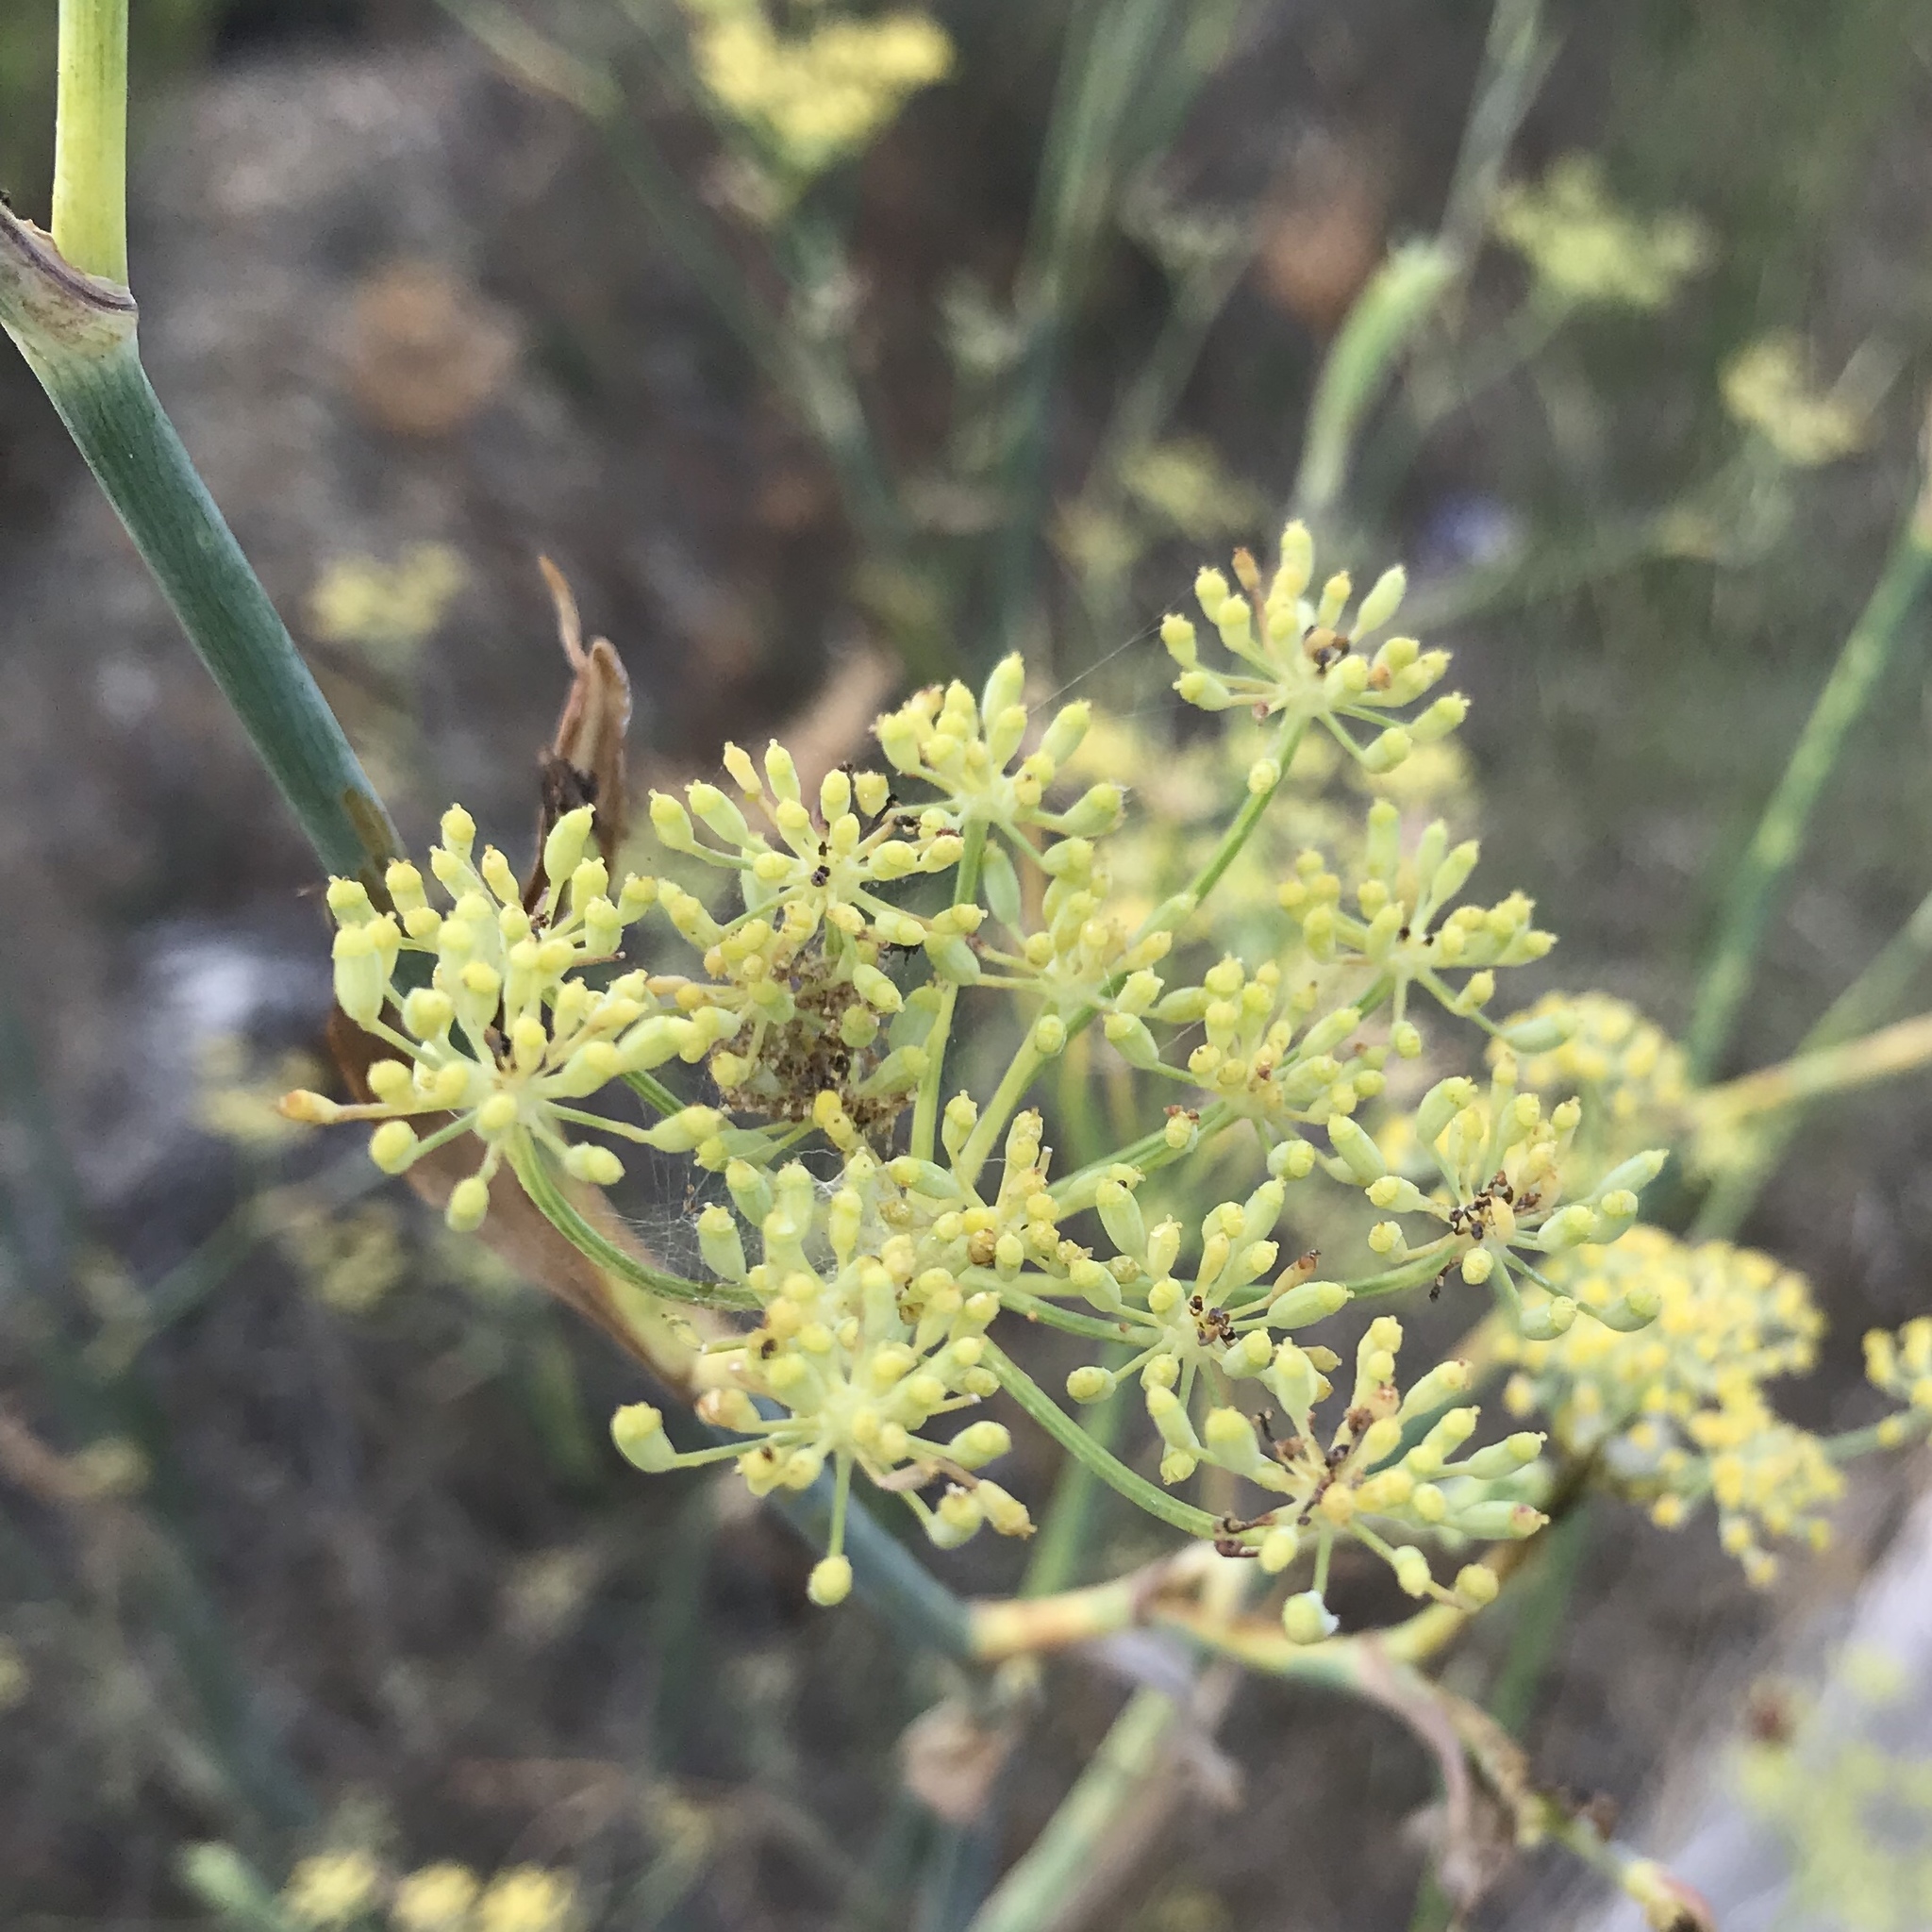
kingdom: Plantae
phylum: Tracheophyta
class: Magnoliopsida
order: Apiales
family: Apiaceae
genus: Foeniculum
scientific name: Foeniculum vulgare
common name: Fennel
